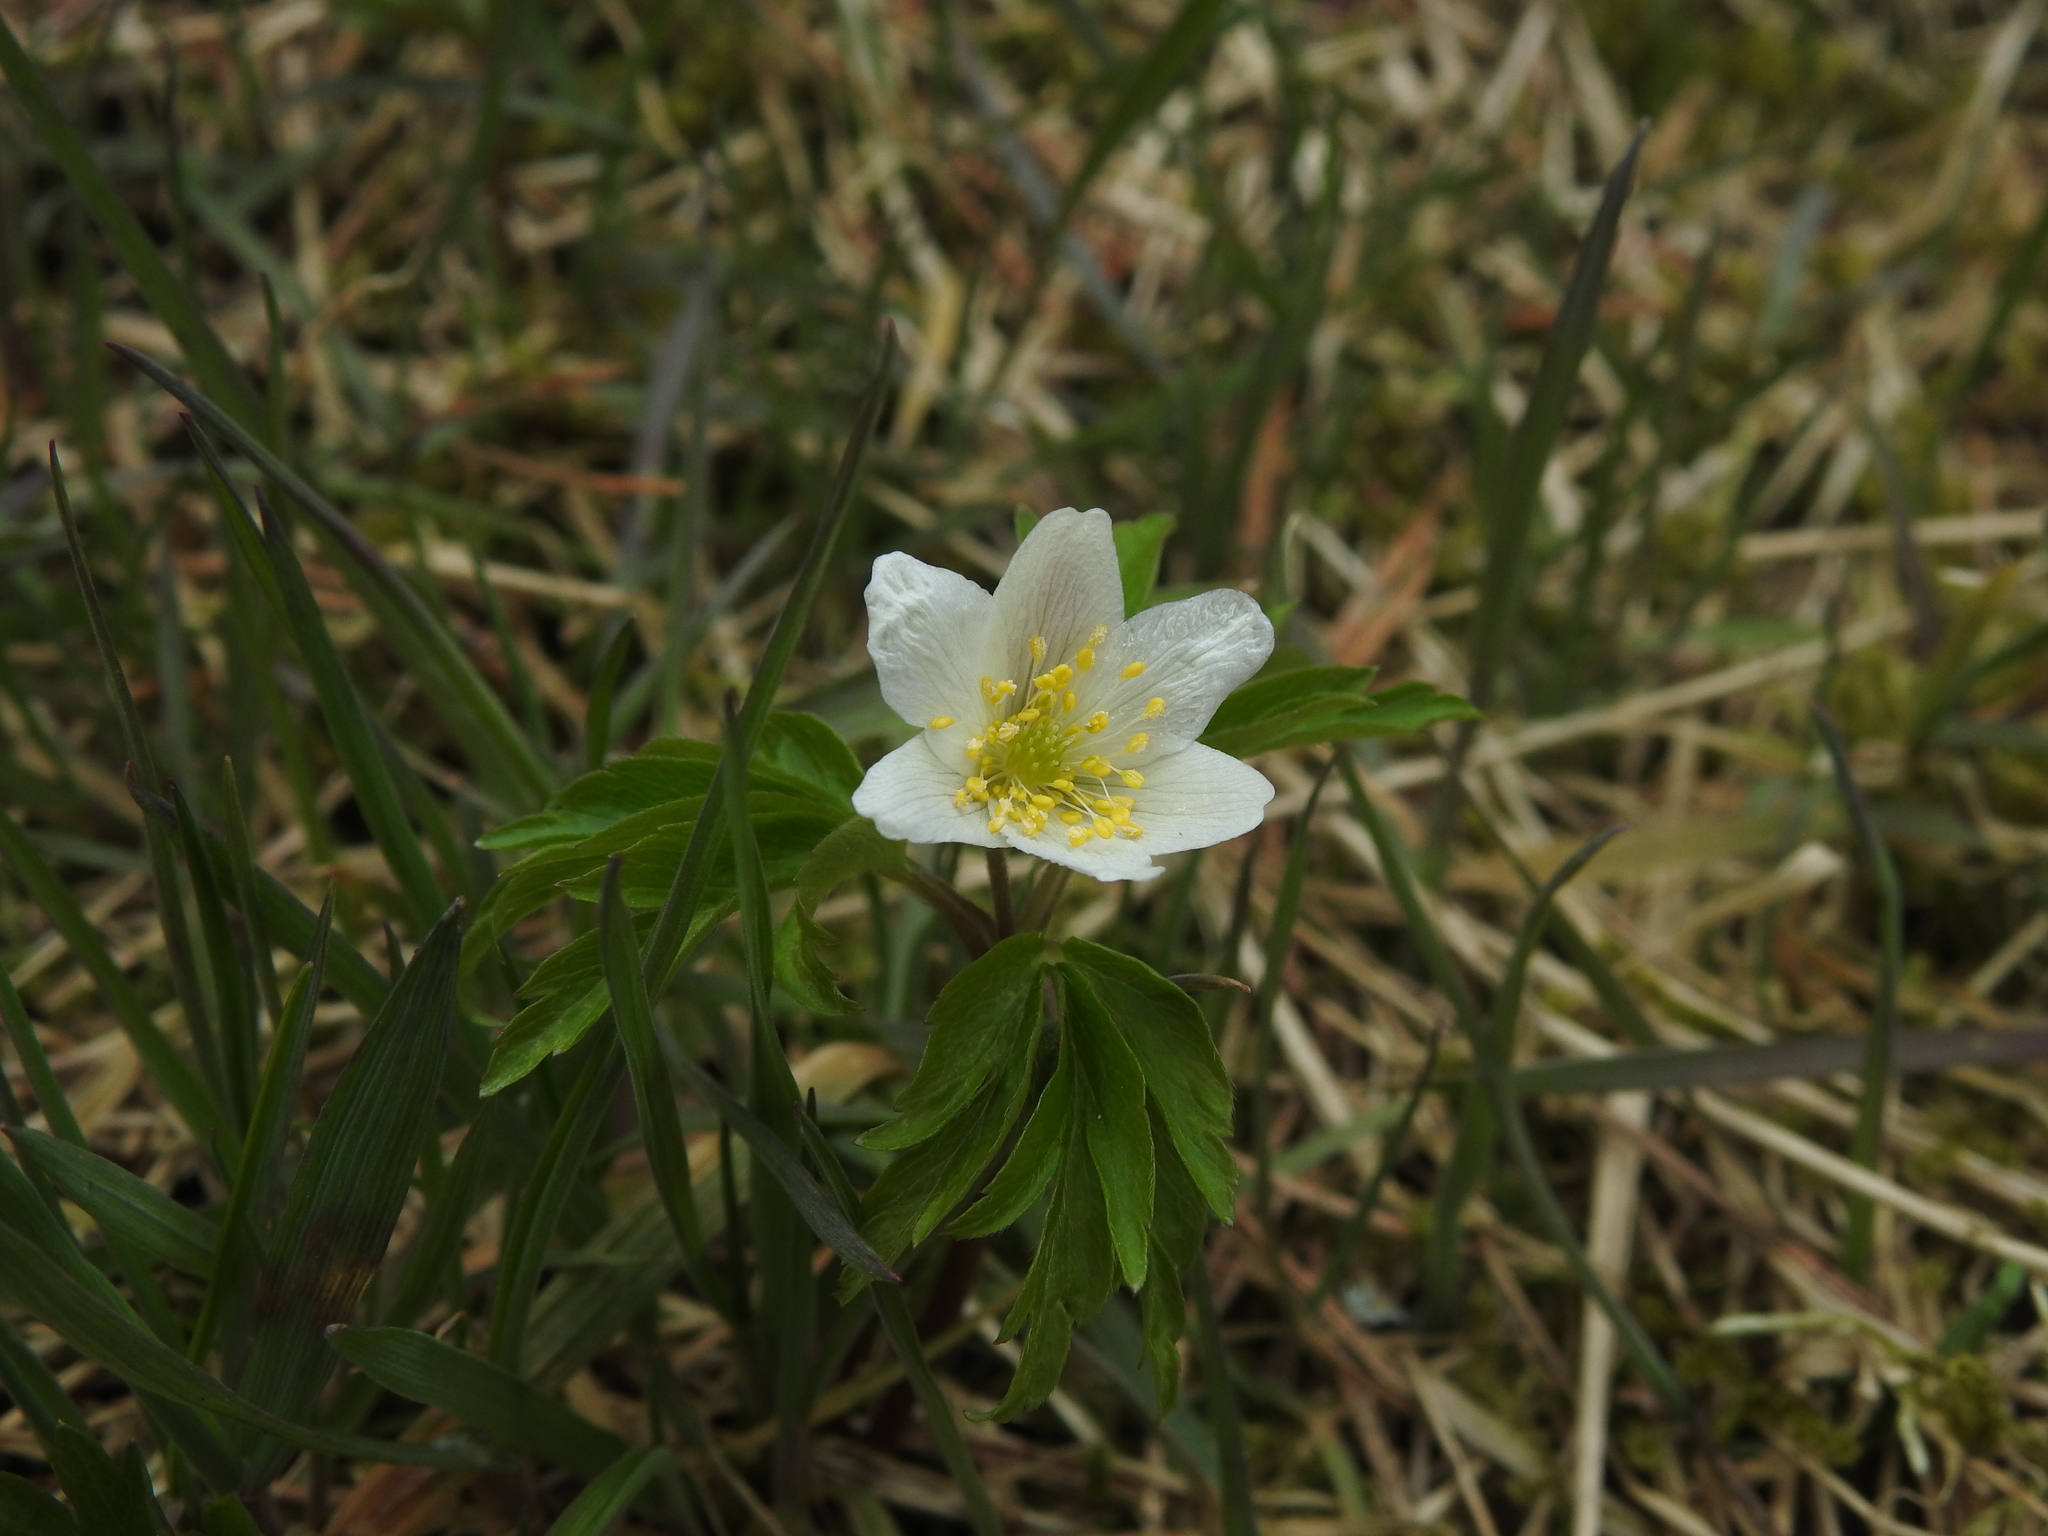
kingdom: Plantae
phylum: Tracheophyta
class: Magnoliopsida
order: Ranunculales
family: Ranunculaceae
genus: Anemone
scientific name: Anemone nemorosa
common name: Wood anemone
